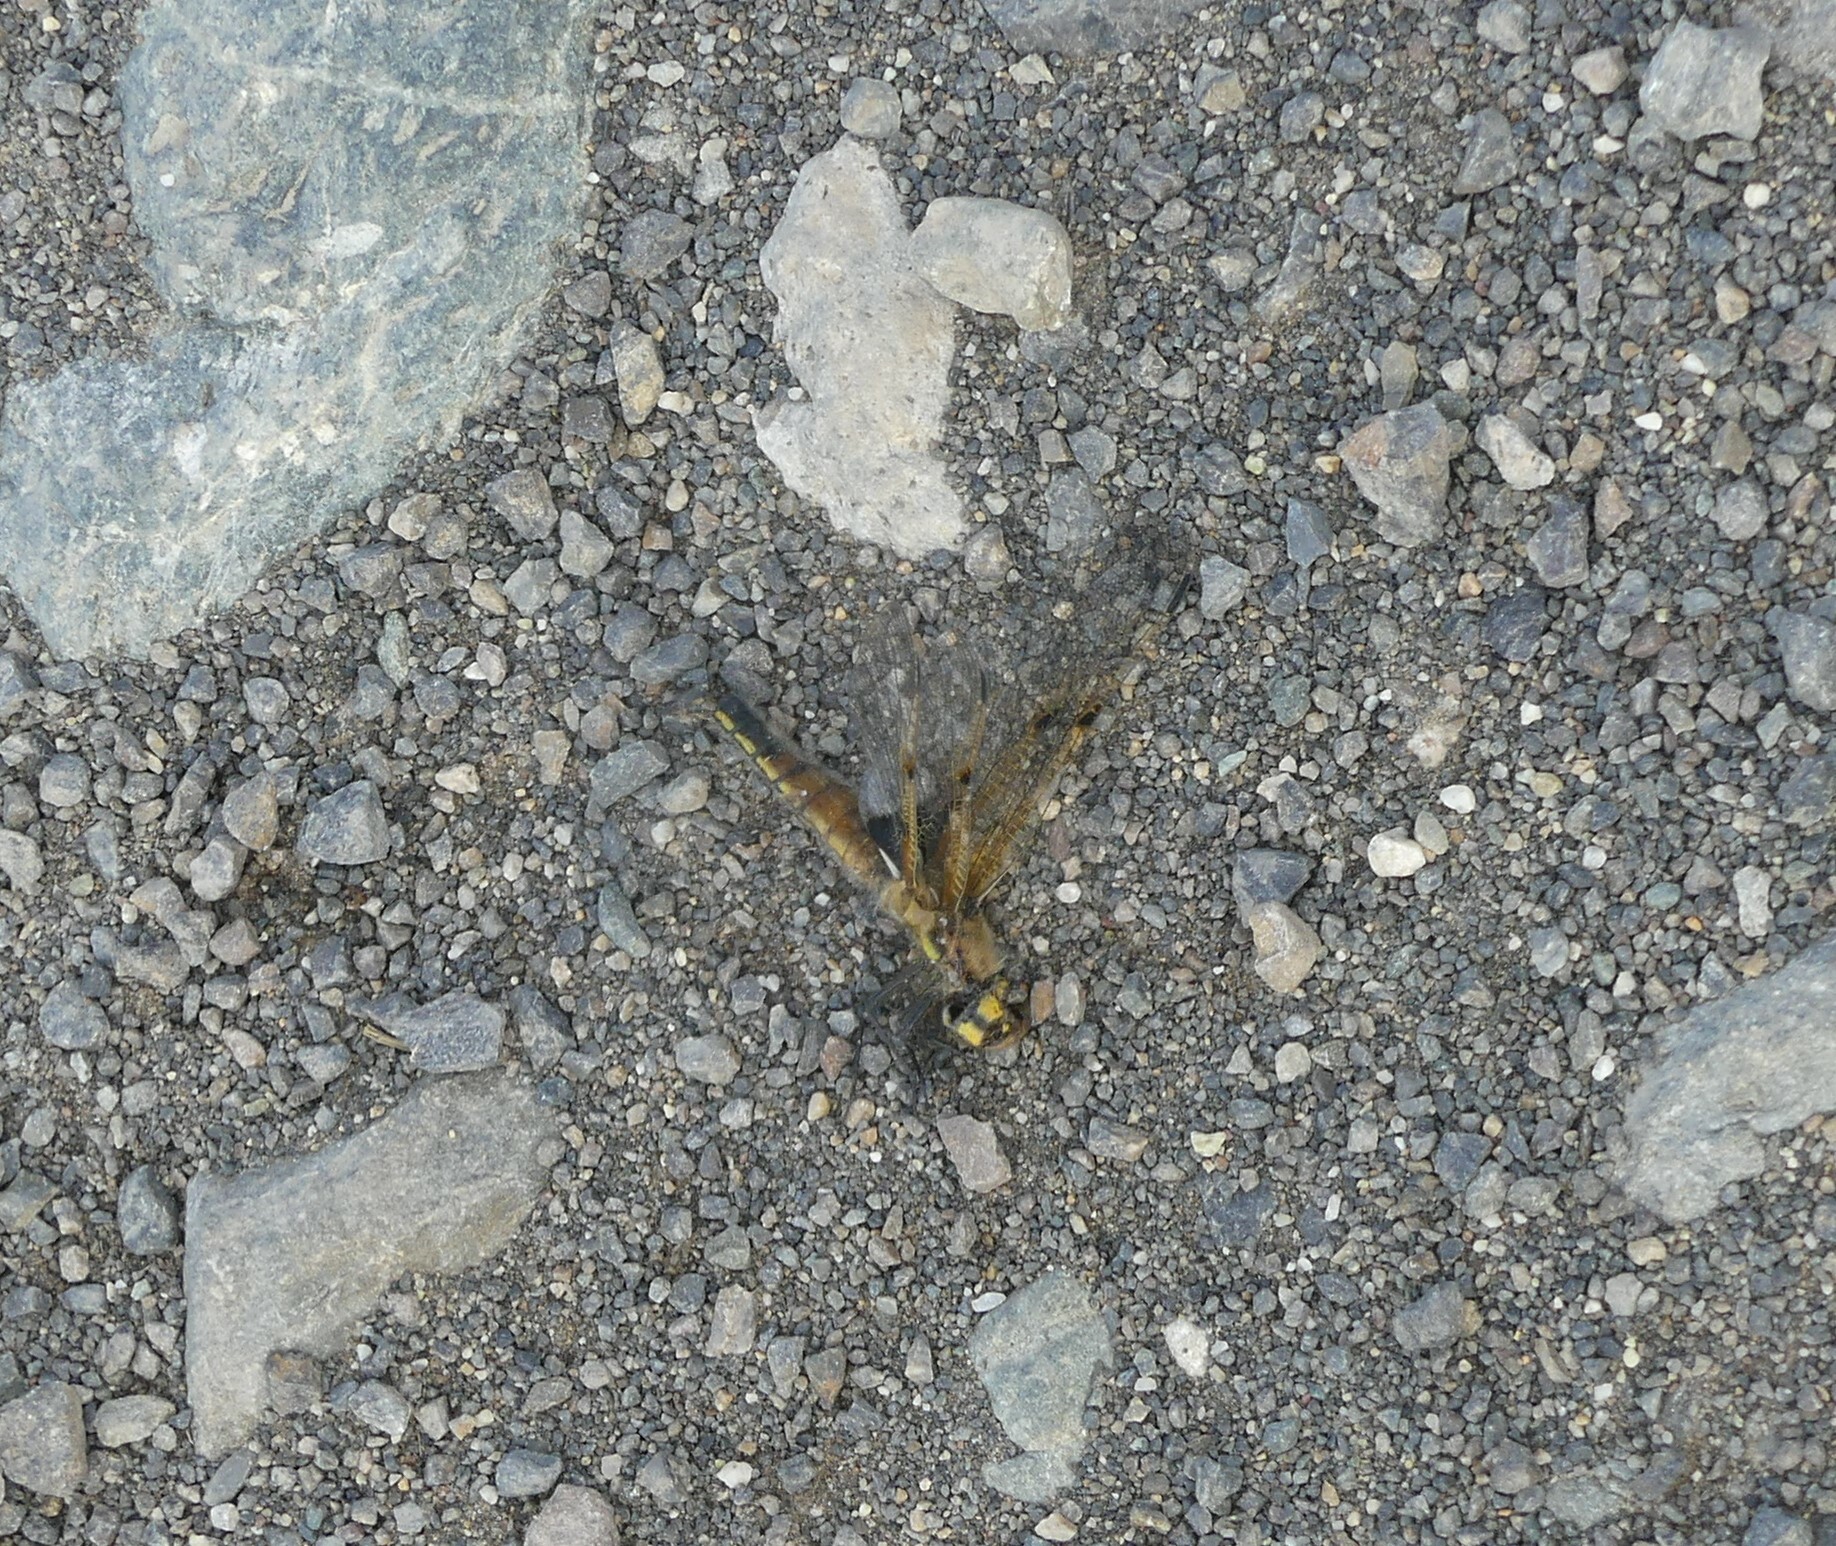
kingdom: Animalia
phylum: Arthropoda
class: Insecta
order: Odonata
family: Libellulidae
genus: Libellula
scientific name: Libellula quadrimaculata
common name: Four-spotted chaser
